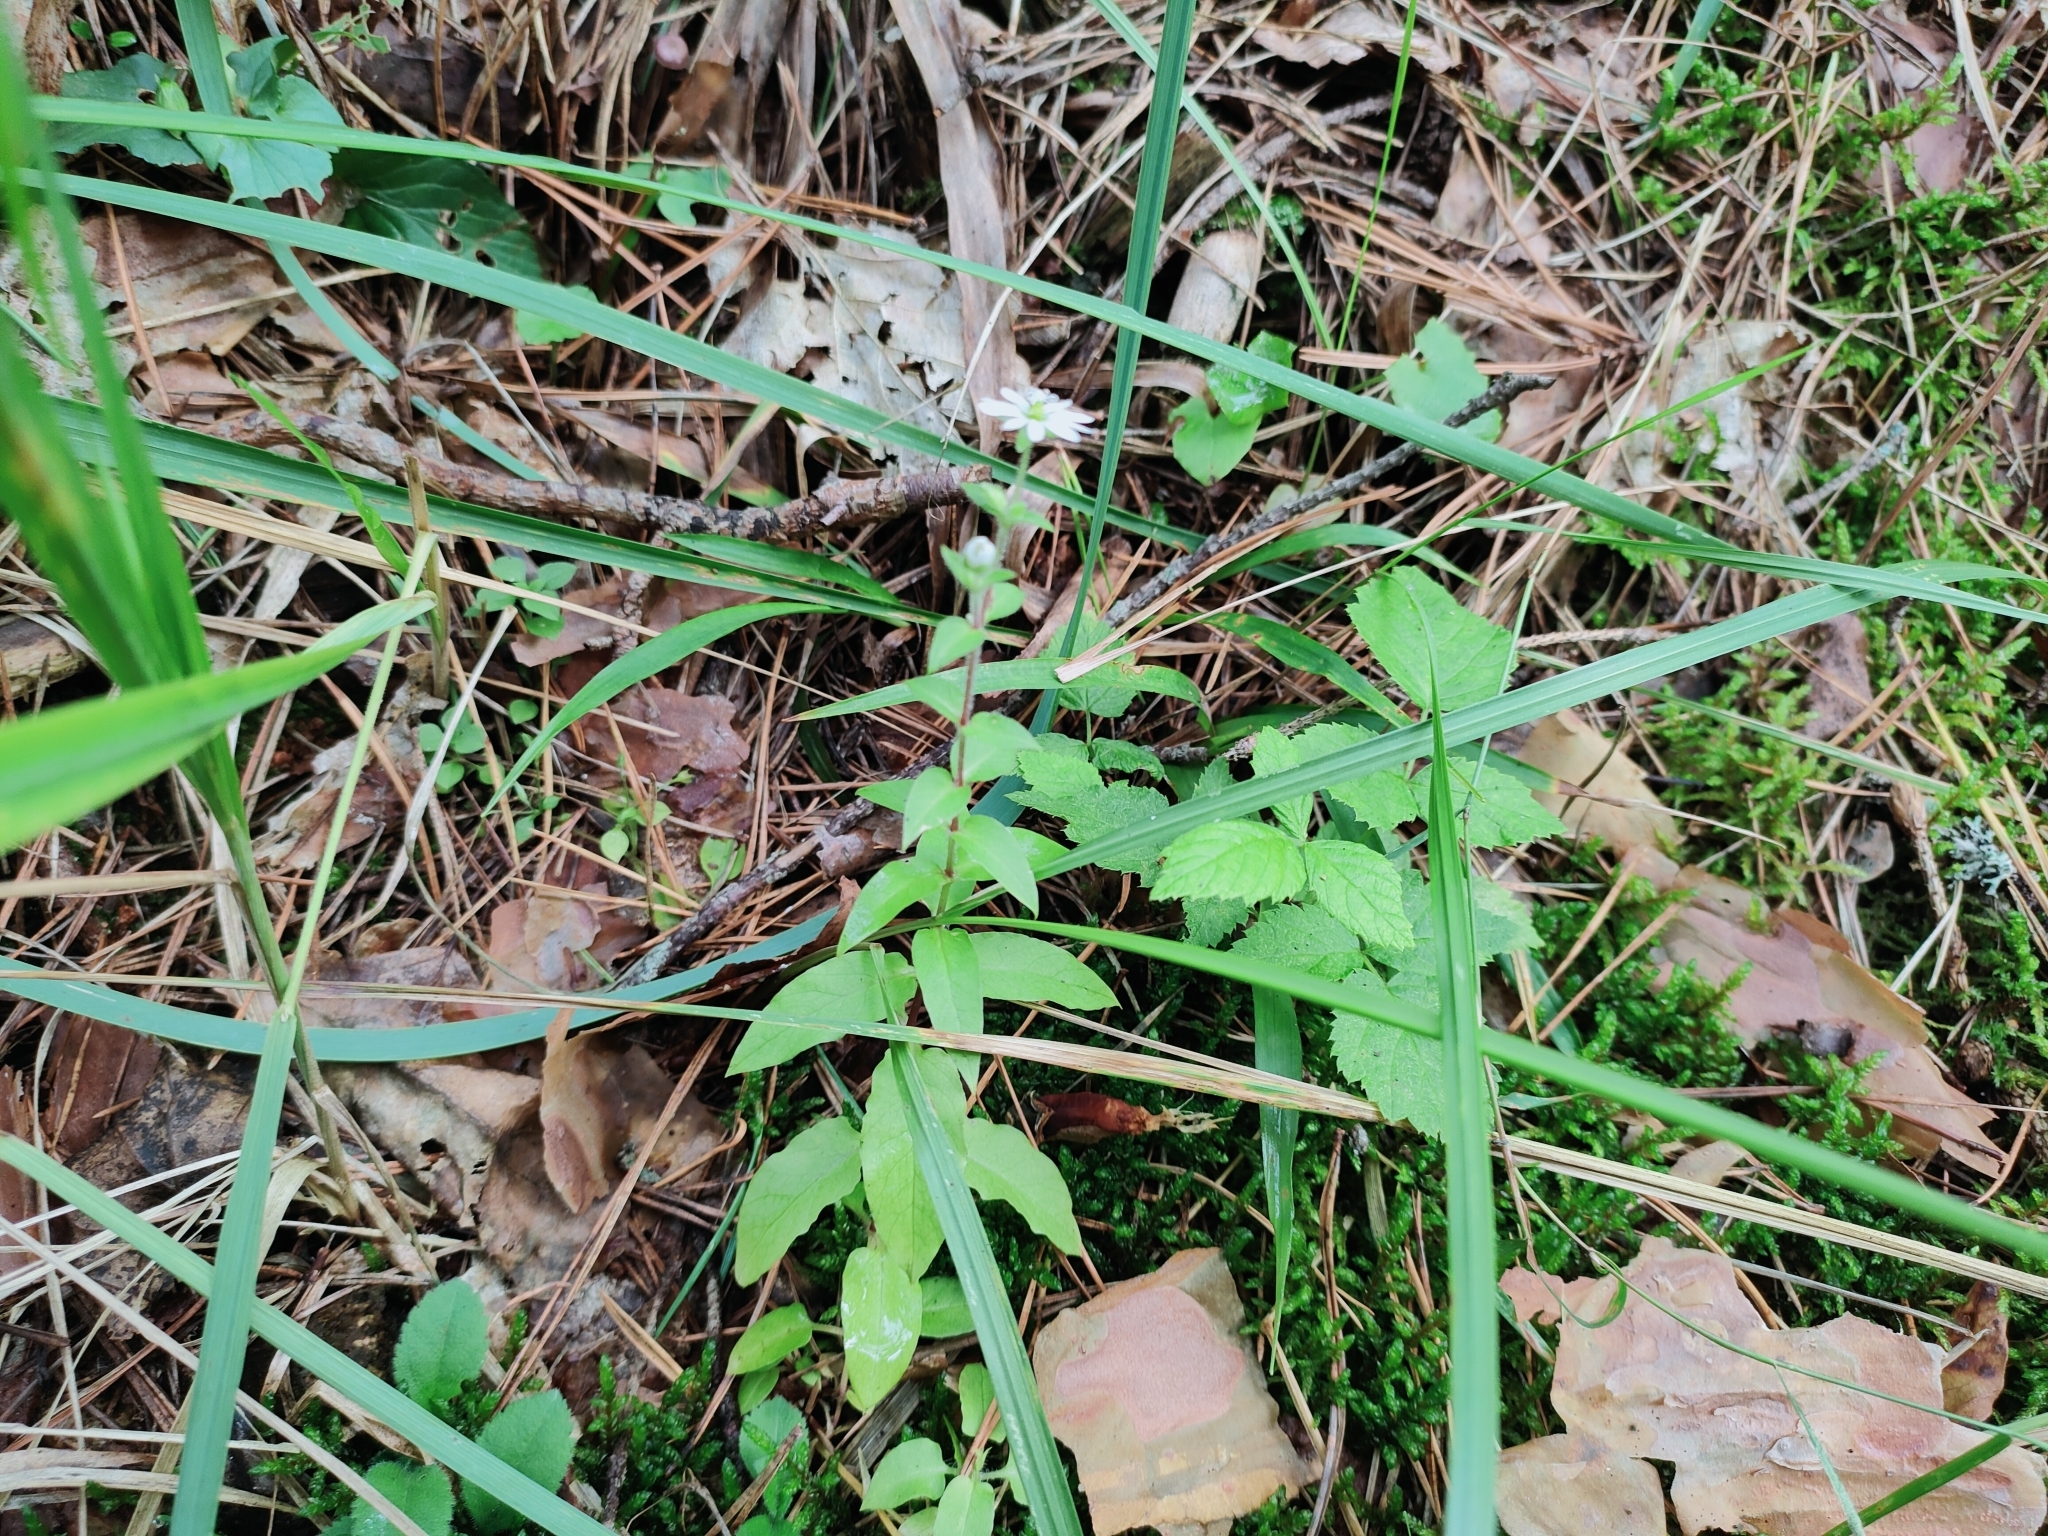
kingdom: Plantae
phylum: Tracheophyta
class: Magnoliopsida
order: Caryophyllales
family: Caryophyllaceae
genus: Stellaria
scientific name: Stellaria aquatica
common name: Water chickweed
